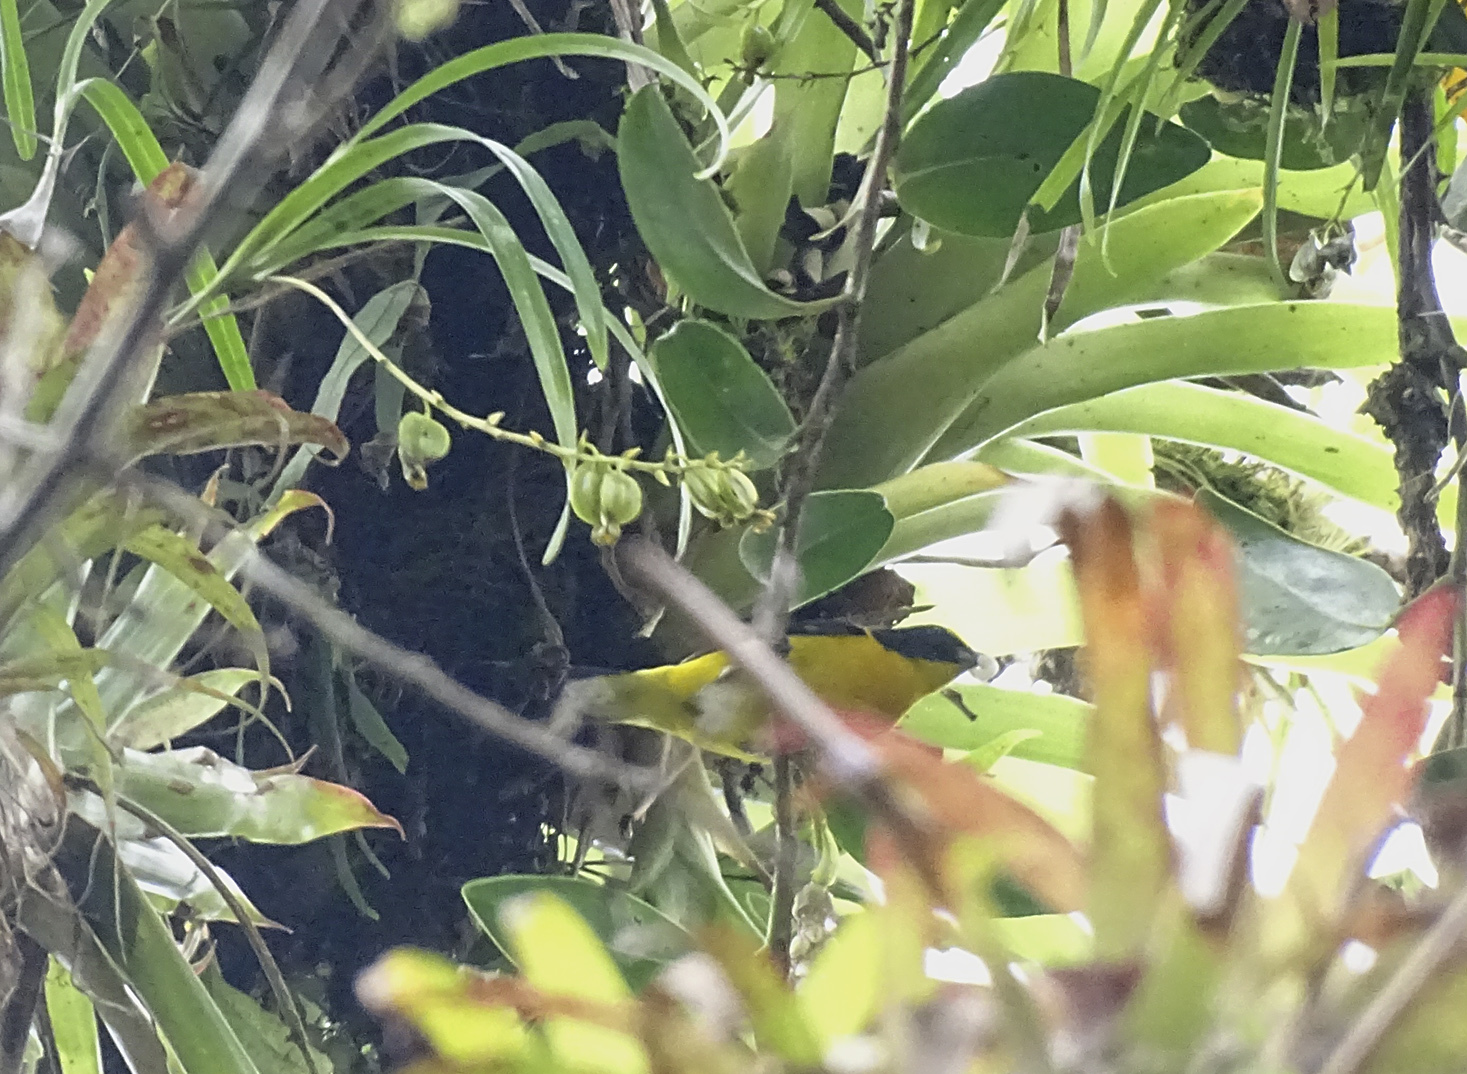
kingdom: Animalia
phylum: Chordata
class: Aves
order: Passeriformes
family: Fringillidae
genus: Euphonia
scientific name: Euphonia hirundinacea
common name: Yellow-throated euphonia
